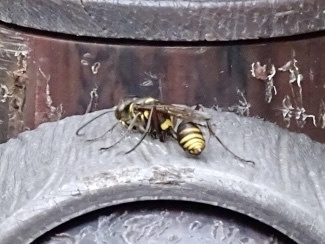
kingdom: Animalia
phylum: Arthropoda
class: Insecta
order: Hymenoptera
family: Sphecidae
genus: Sceliphron
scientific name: Sceliphron deforme
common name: Pelopèe
